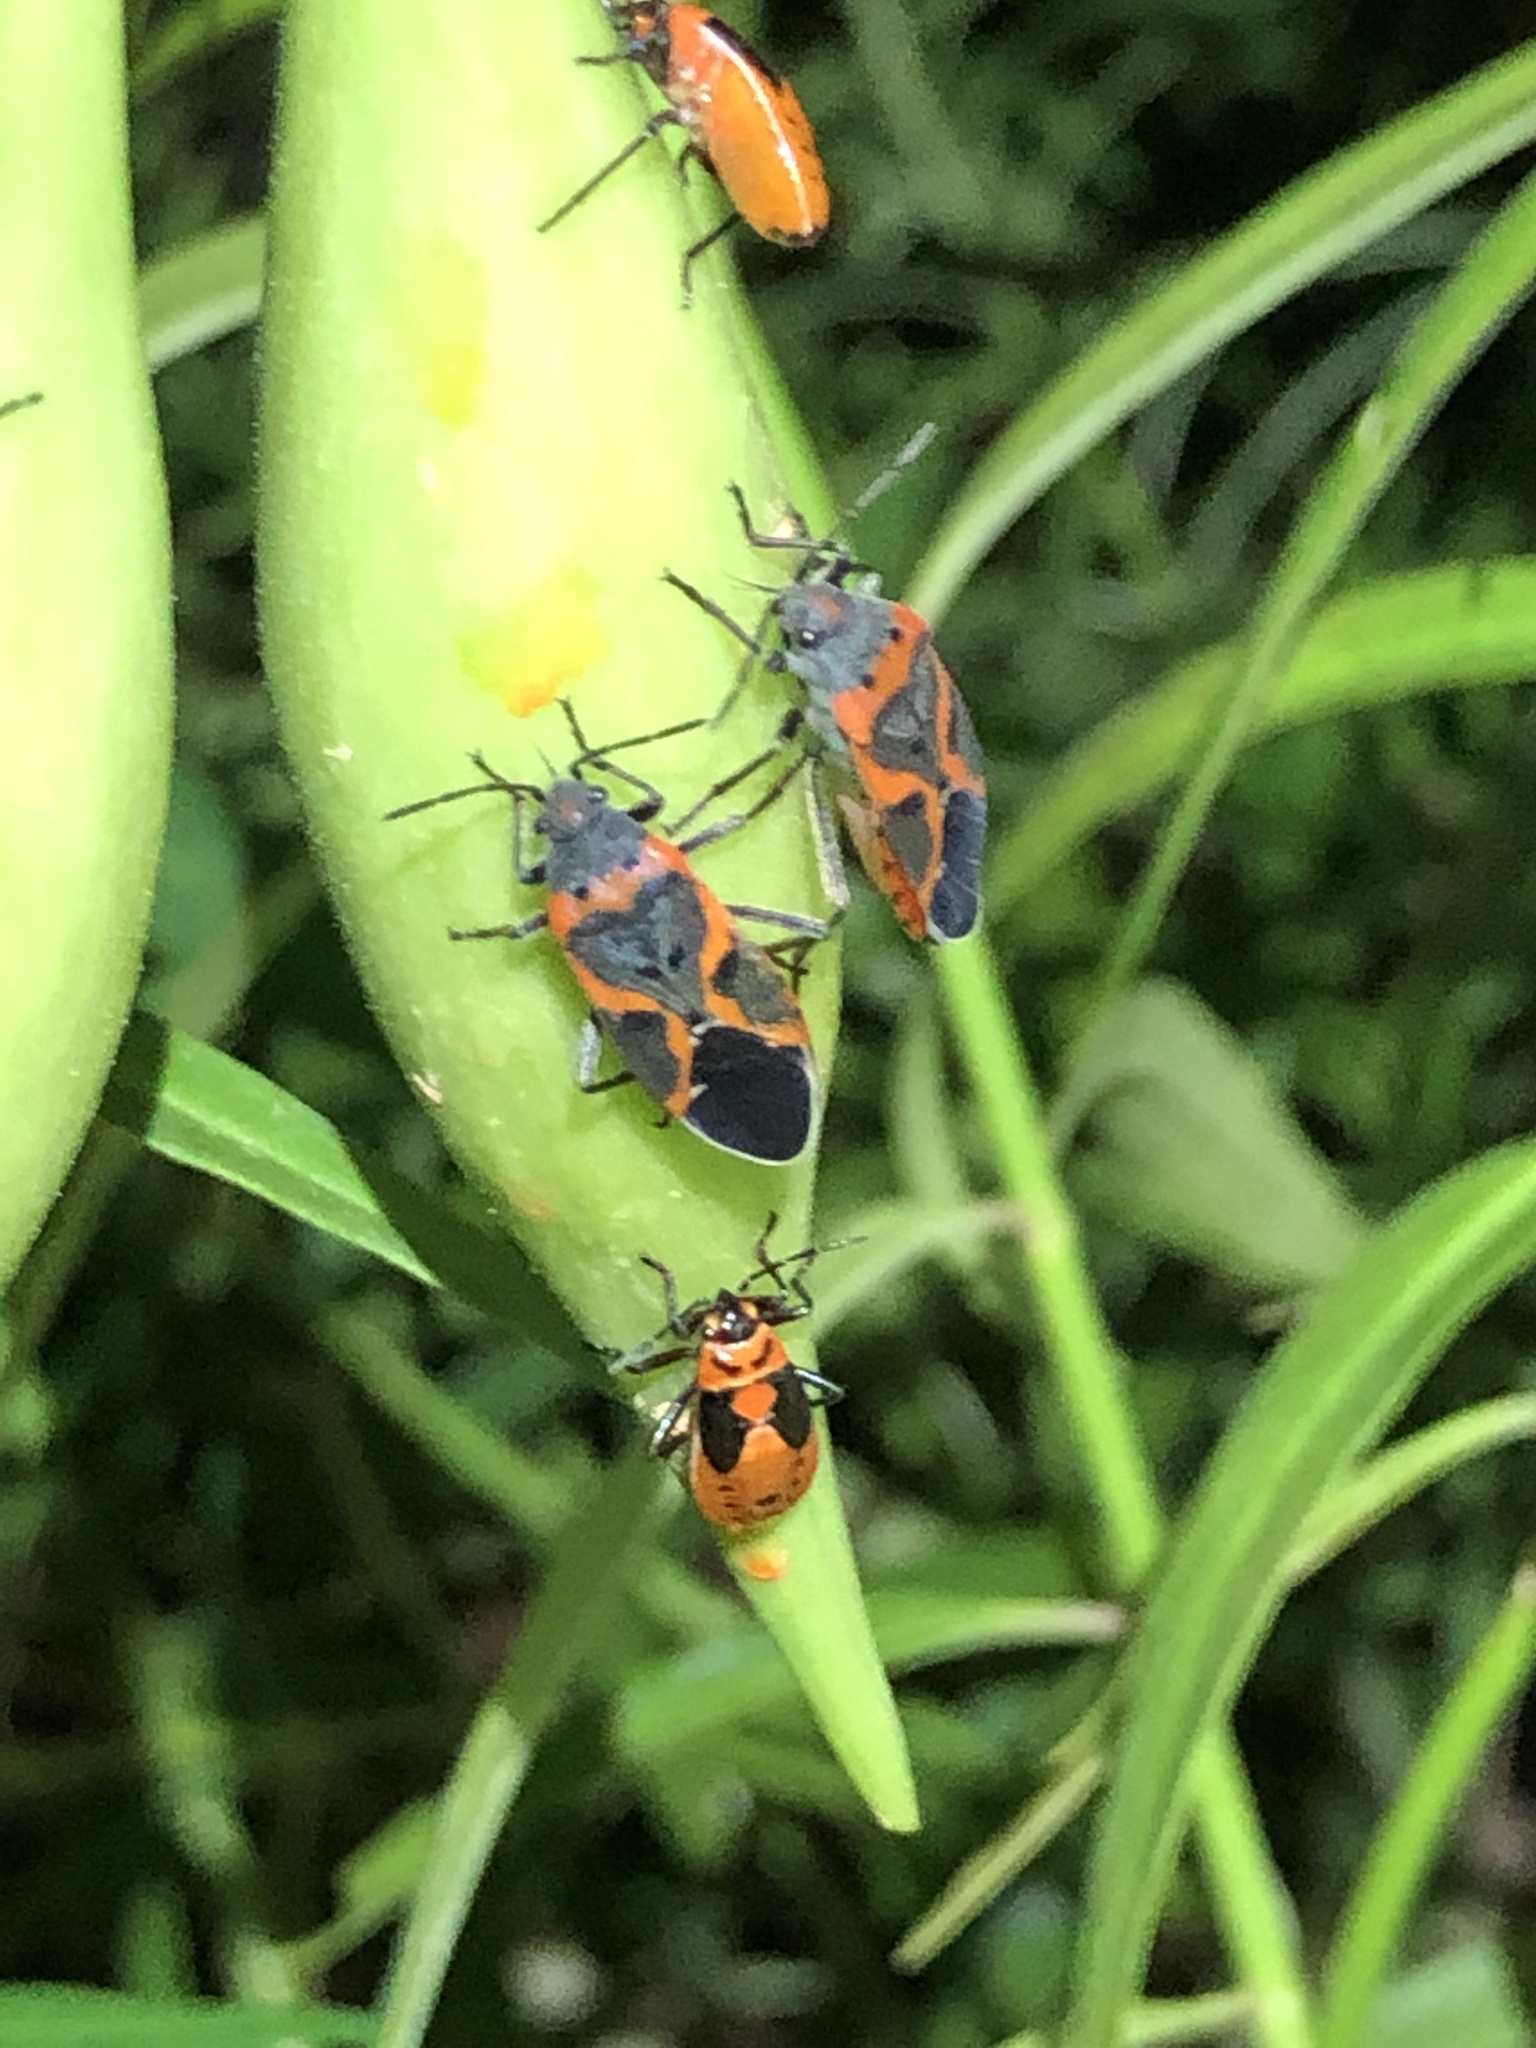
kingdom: Animalia
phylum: Arthropoda
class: Insecta
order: Hemiptera
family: Lygaeidae
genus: Lygaeus
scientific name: Lygaeus kalmii
